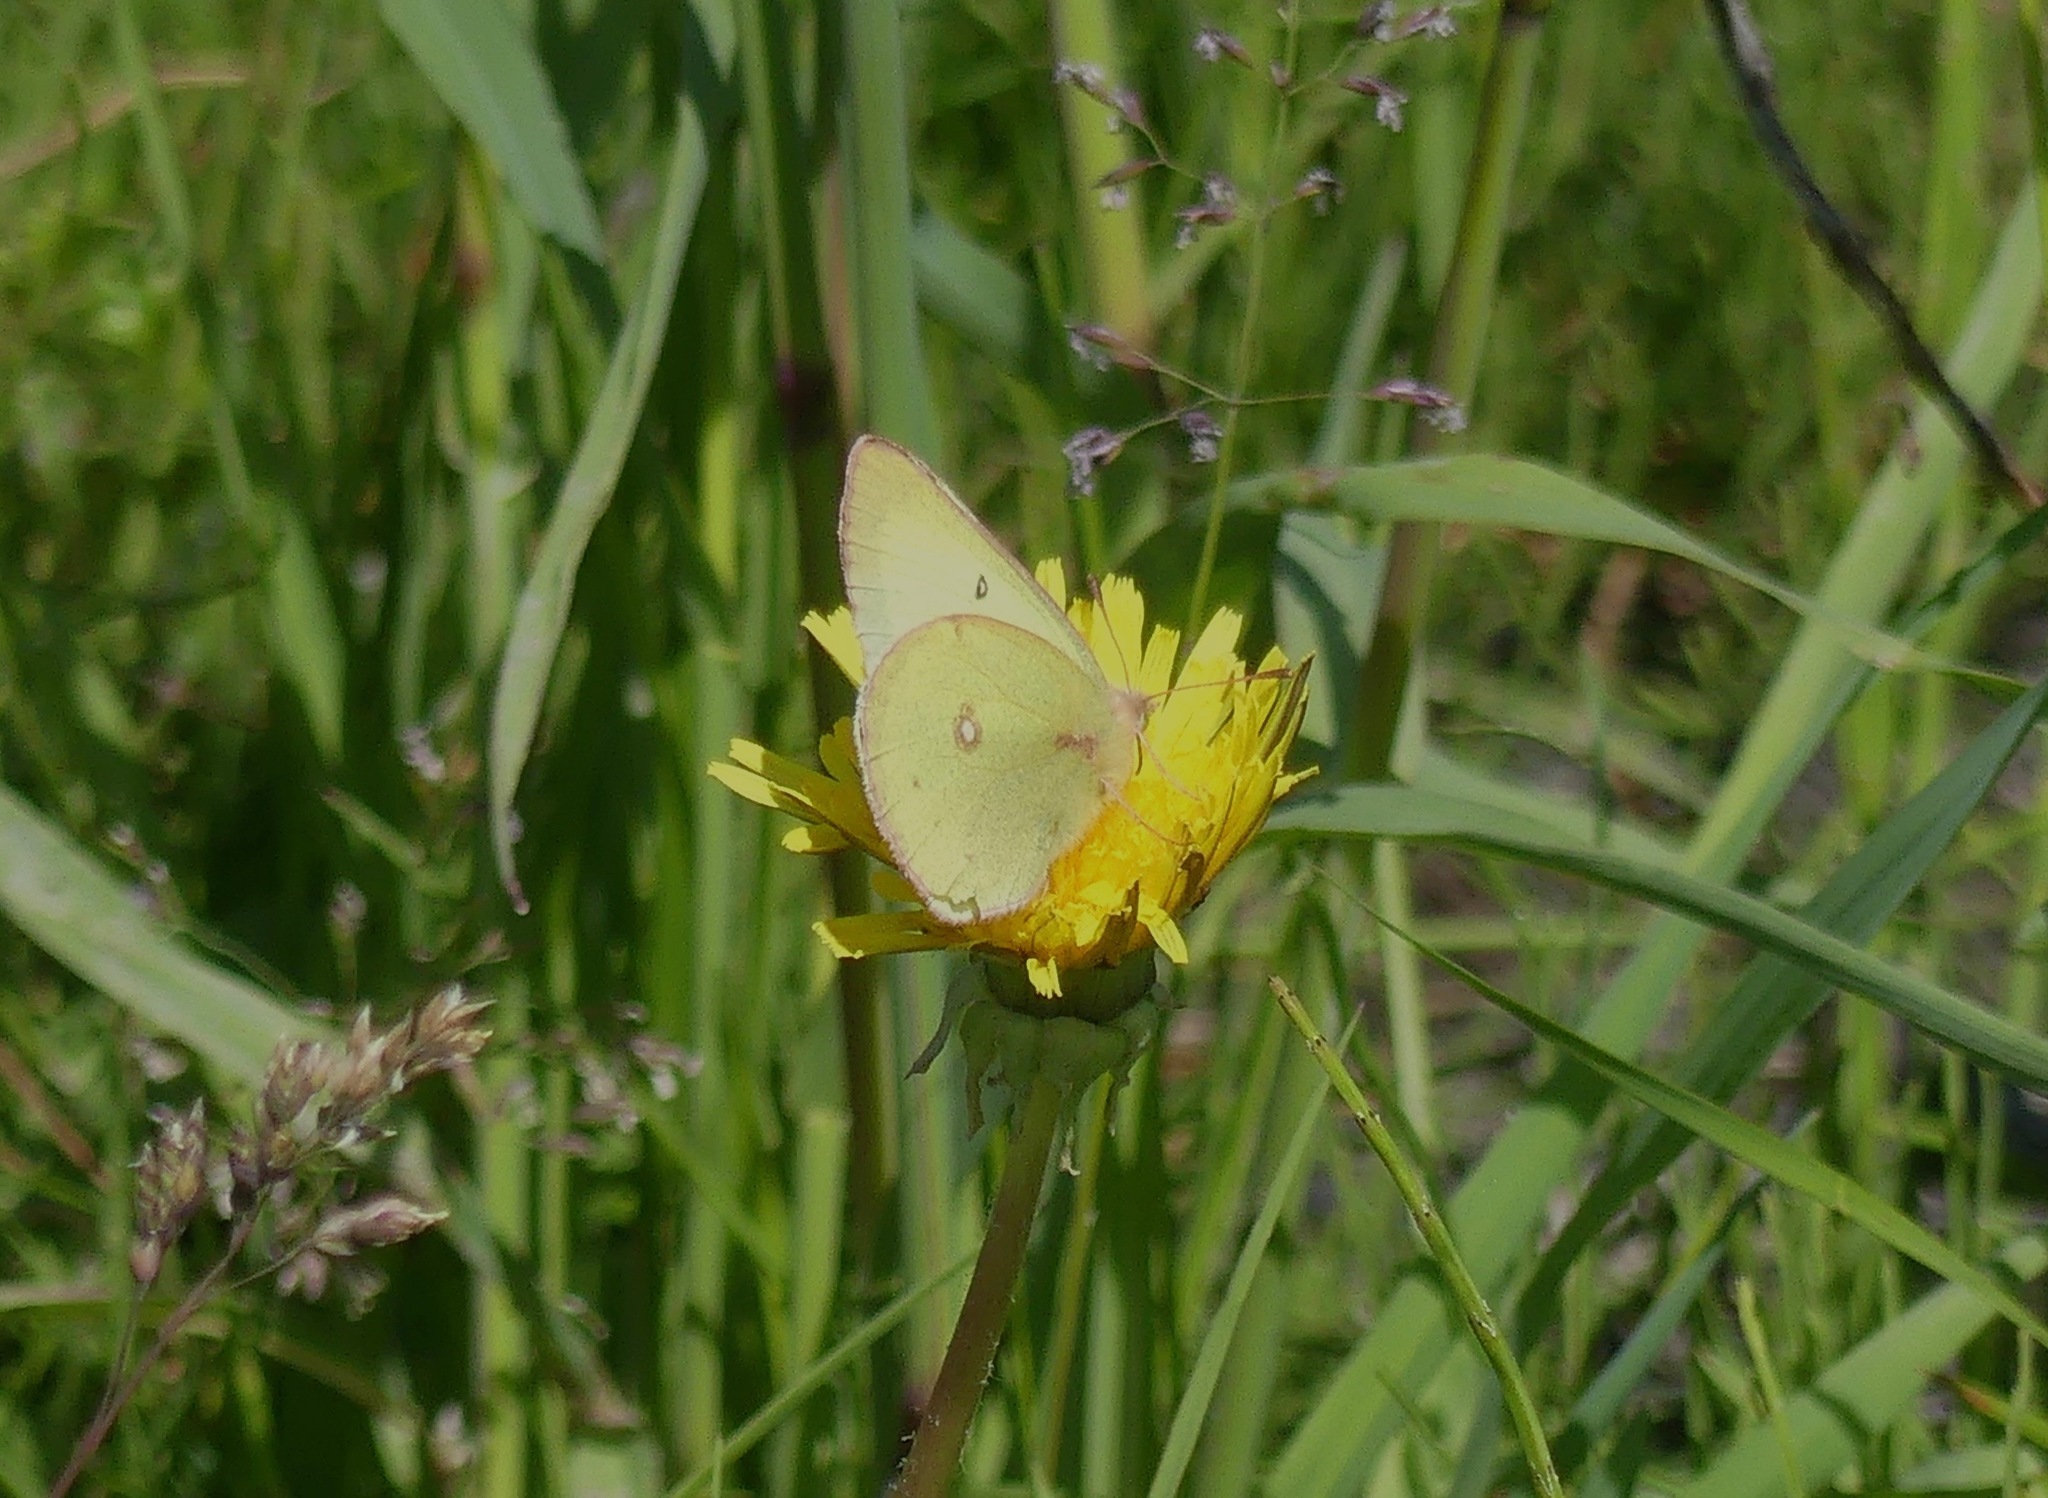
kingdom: Animalia
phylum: Arthropoda
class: Insecta
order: Lepidoptera
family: Pieridae
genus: Colias
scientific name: Colias philodice
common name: Clouded sulphur
